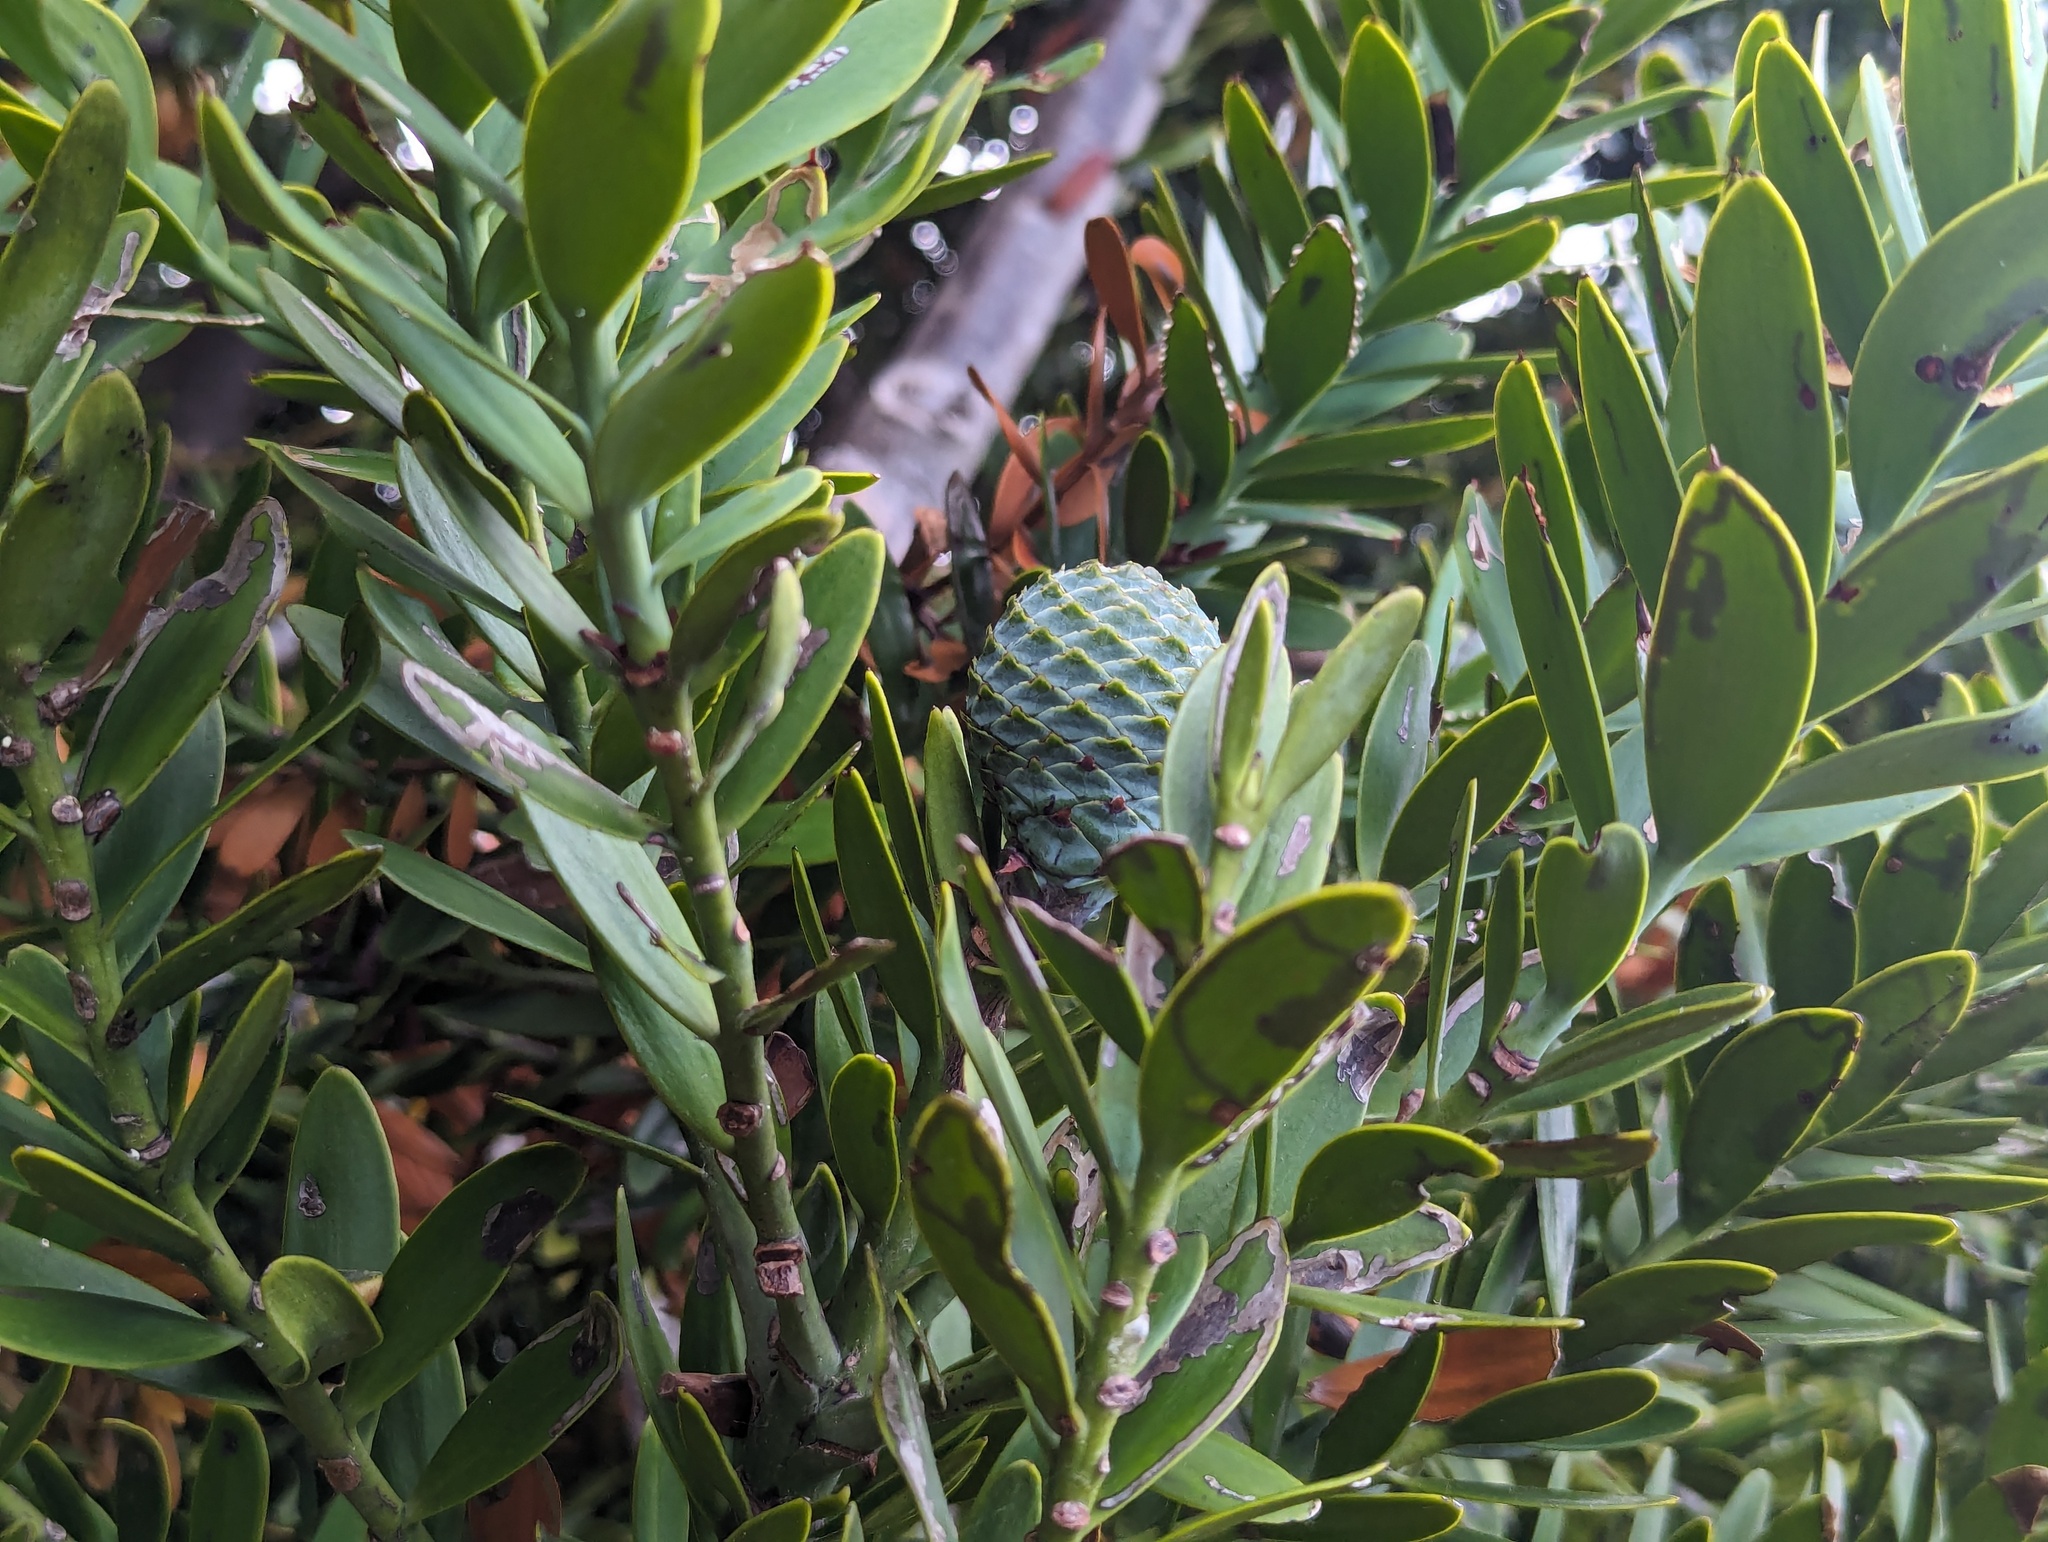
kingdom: Plantae
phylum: Tracheophyta
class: Pinopsida
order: Pinales
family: Araucariaceae
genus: Agathis
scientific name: Agathis australis
